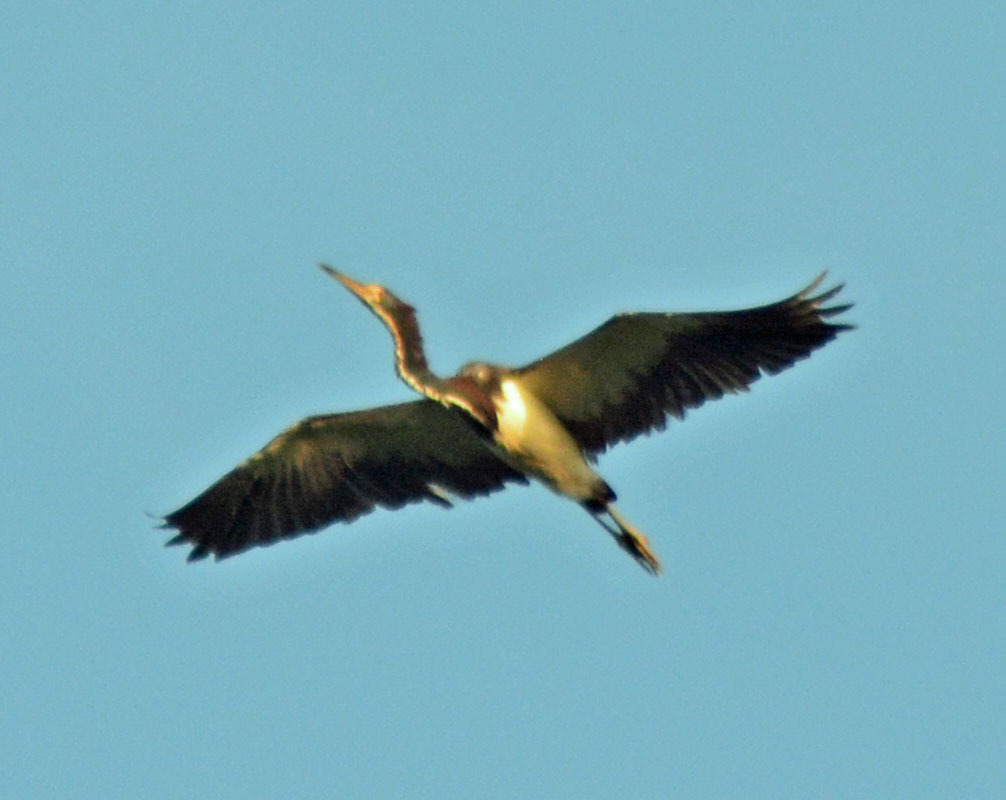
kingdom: Animalia
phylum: Chordata
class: Aves
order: Pelecaniformes
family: Ardeidae
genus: Egretta
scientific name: Egretta tricolor
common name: Tricolored heron
